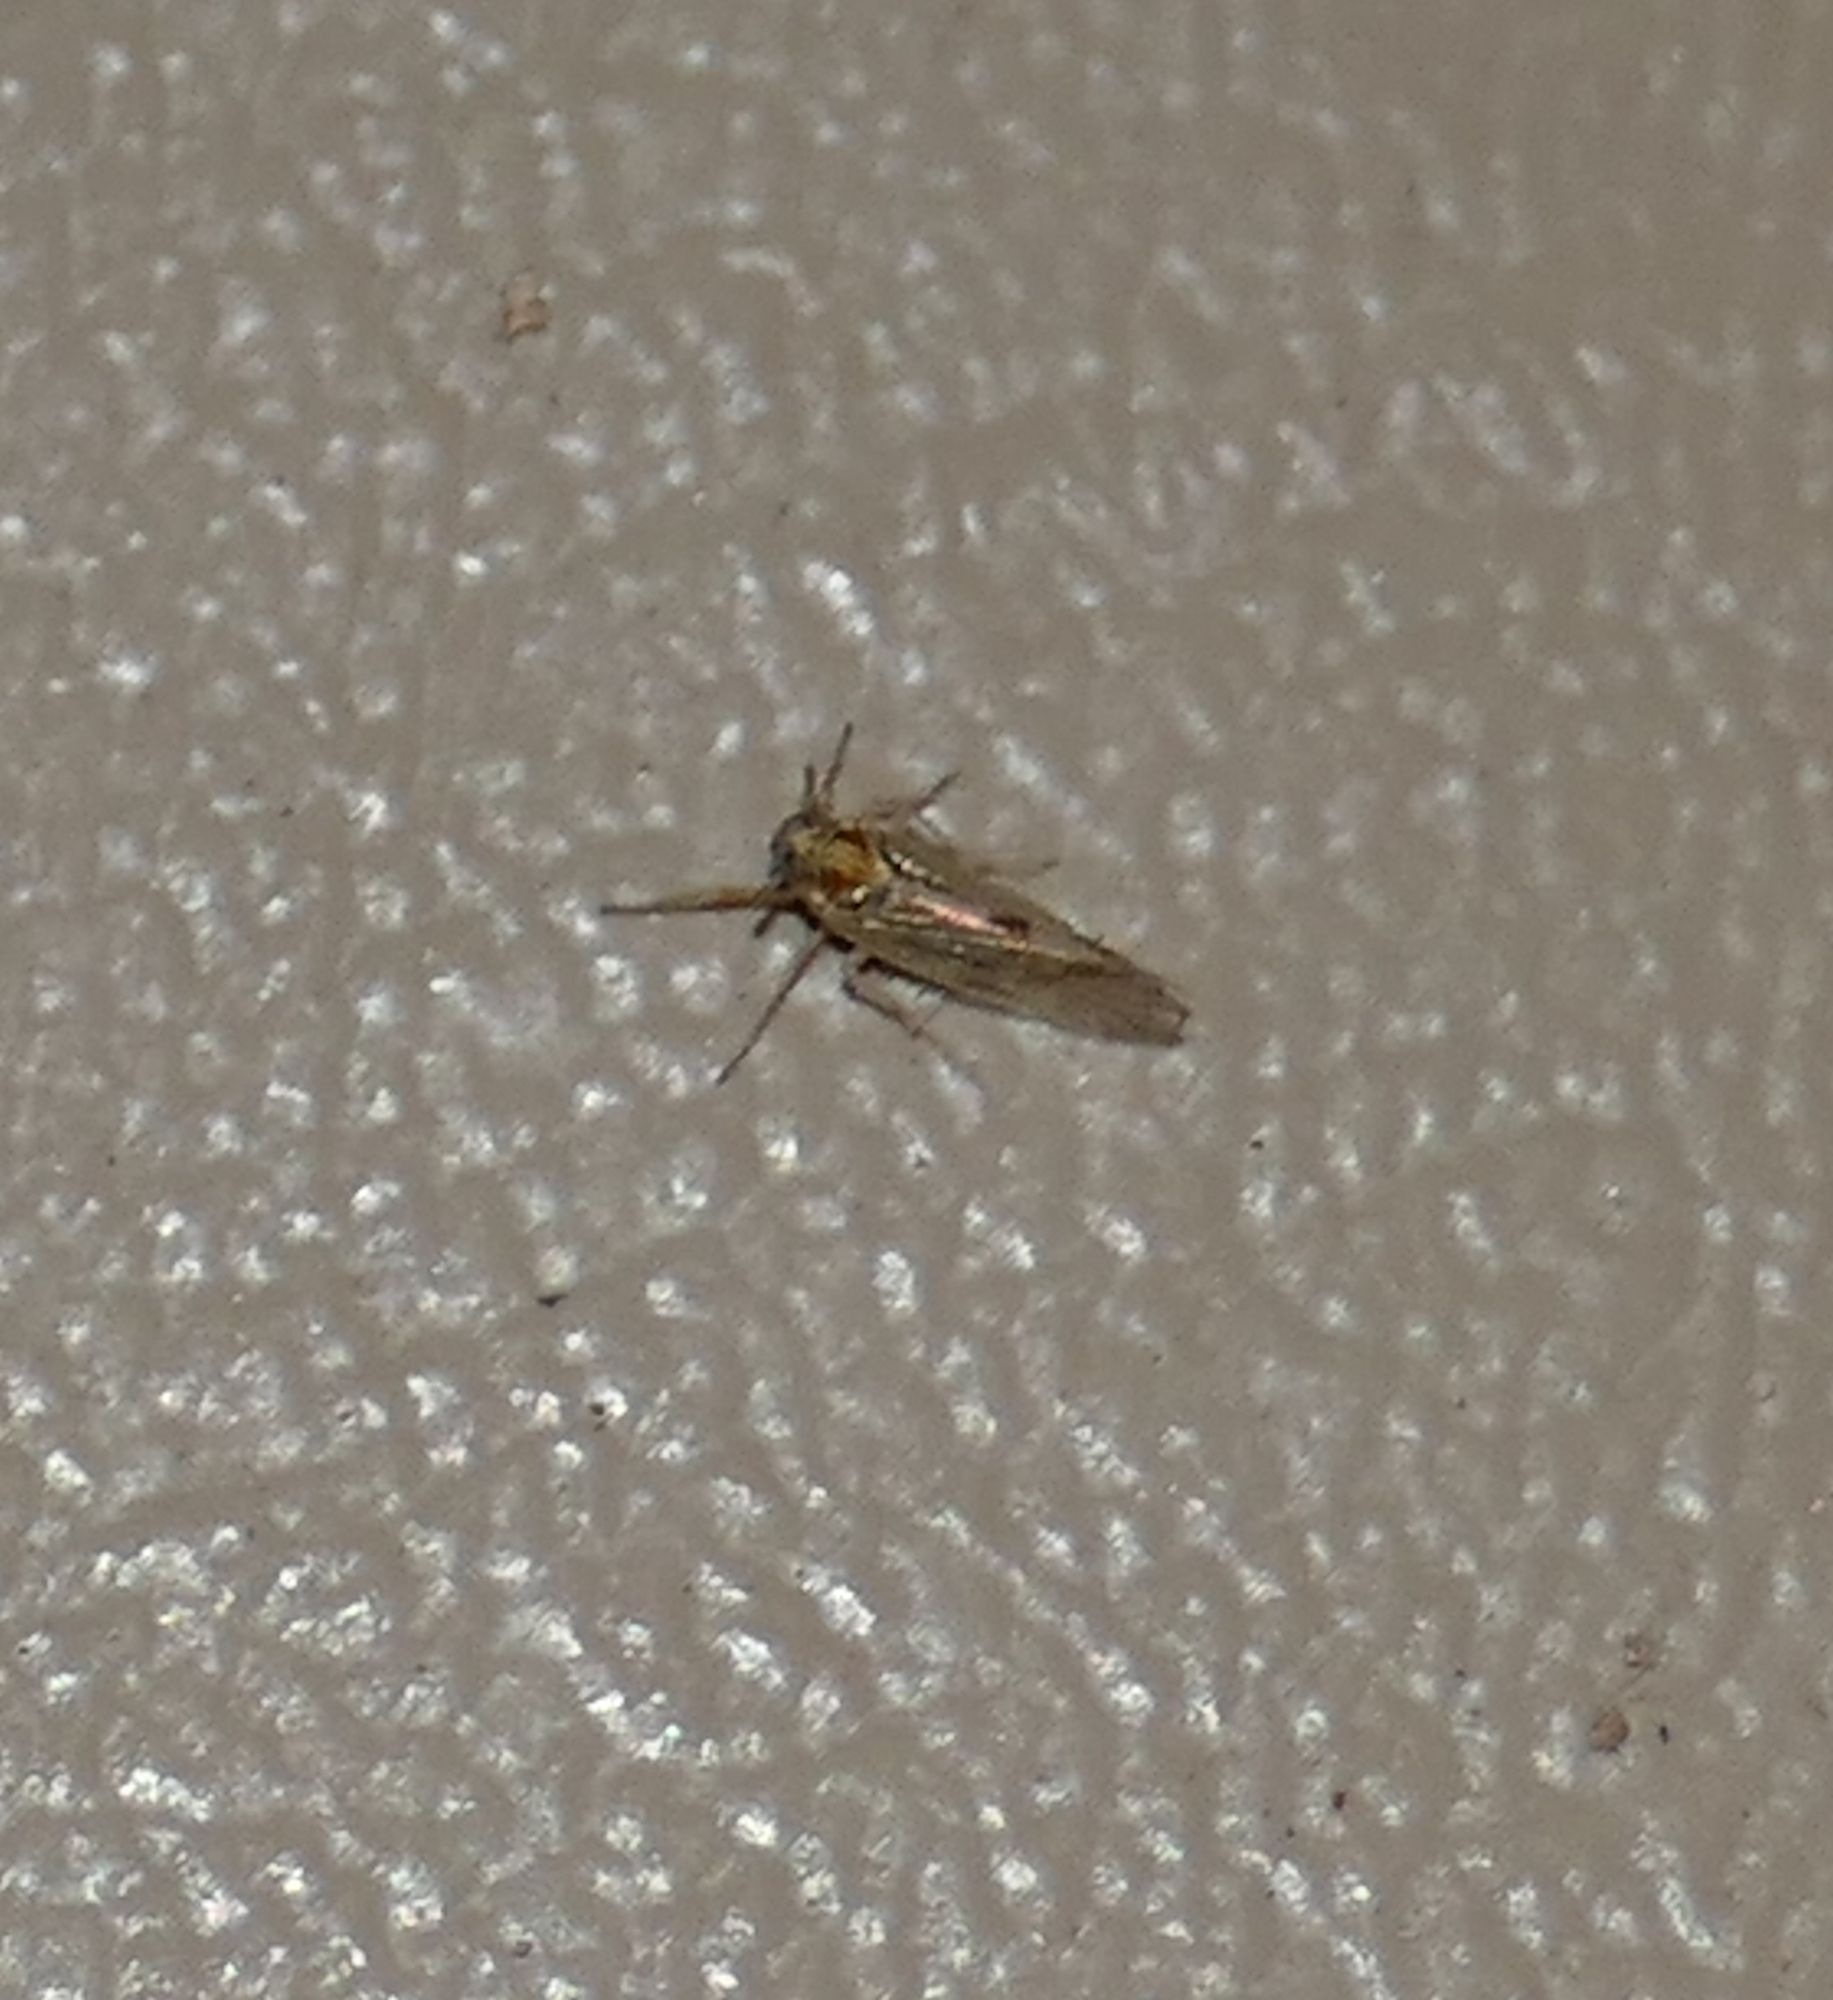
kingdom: Animalia
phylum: Arthropoda
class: Insecta
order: Hemiptera
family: Delphacidae
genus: Chionomus
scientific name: Chionomus
